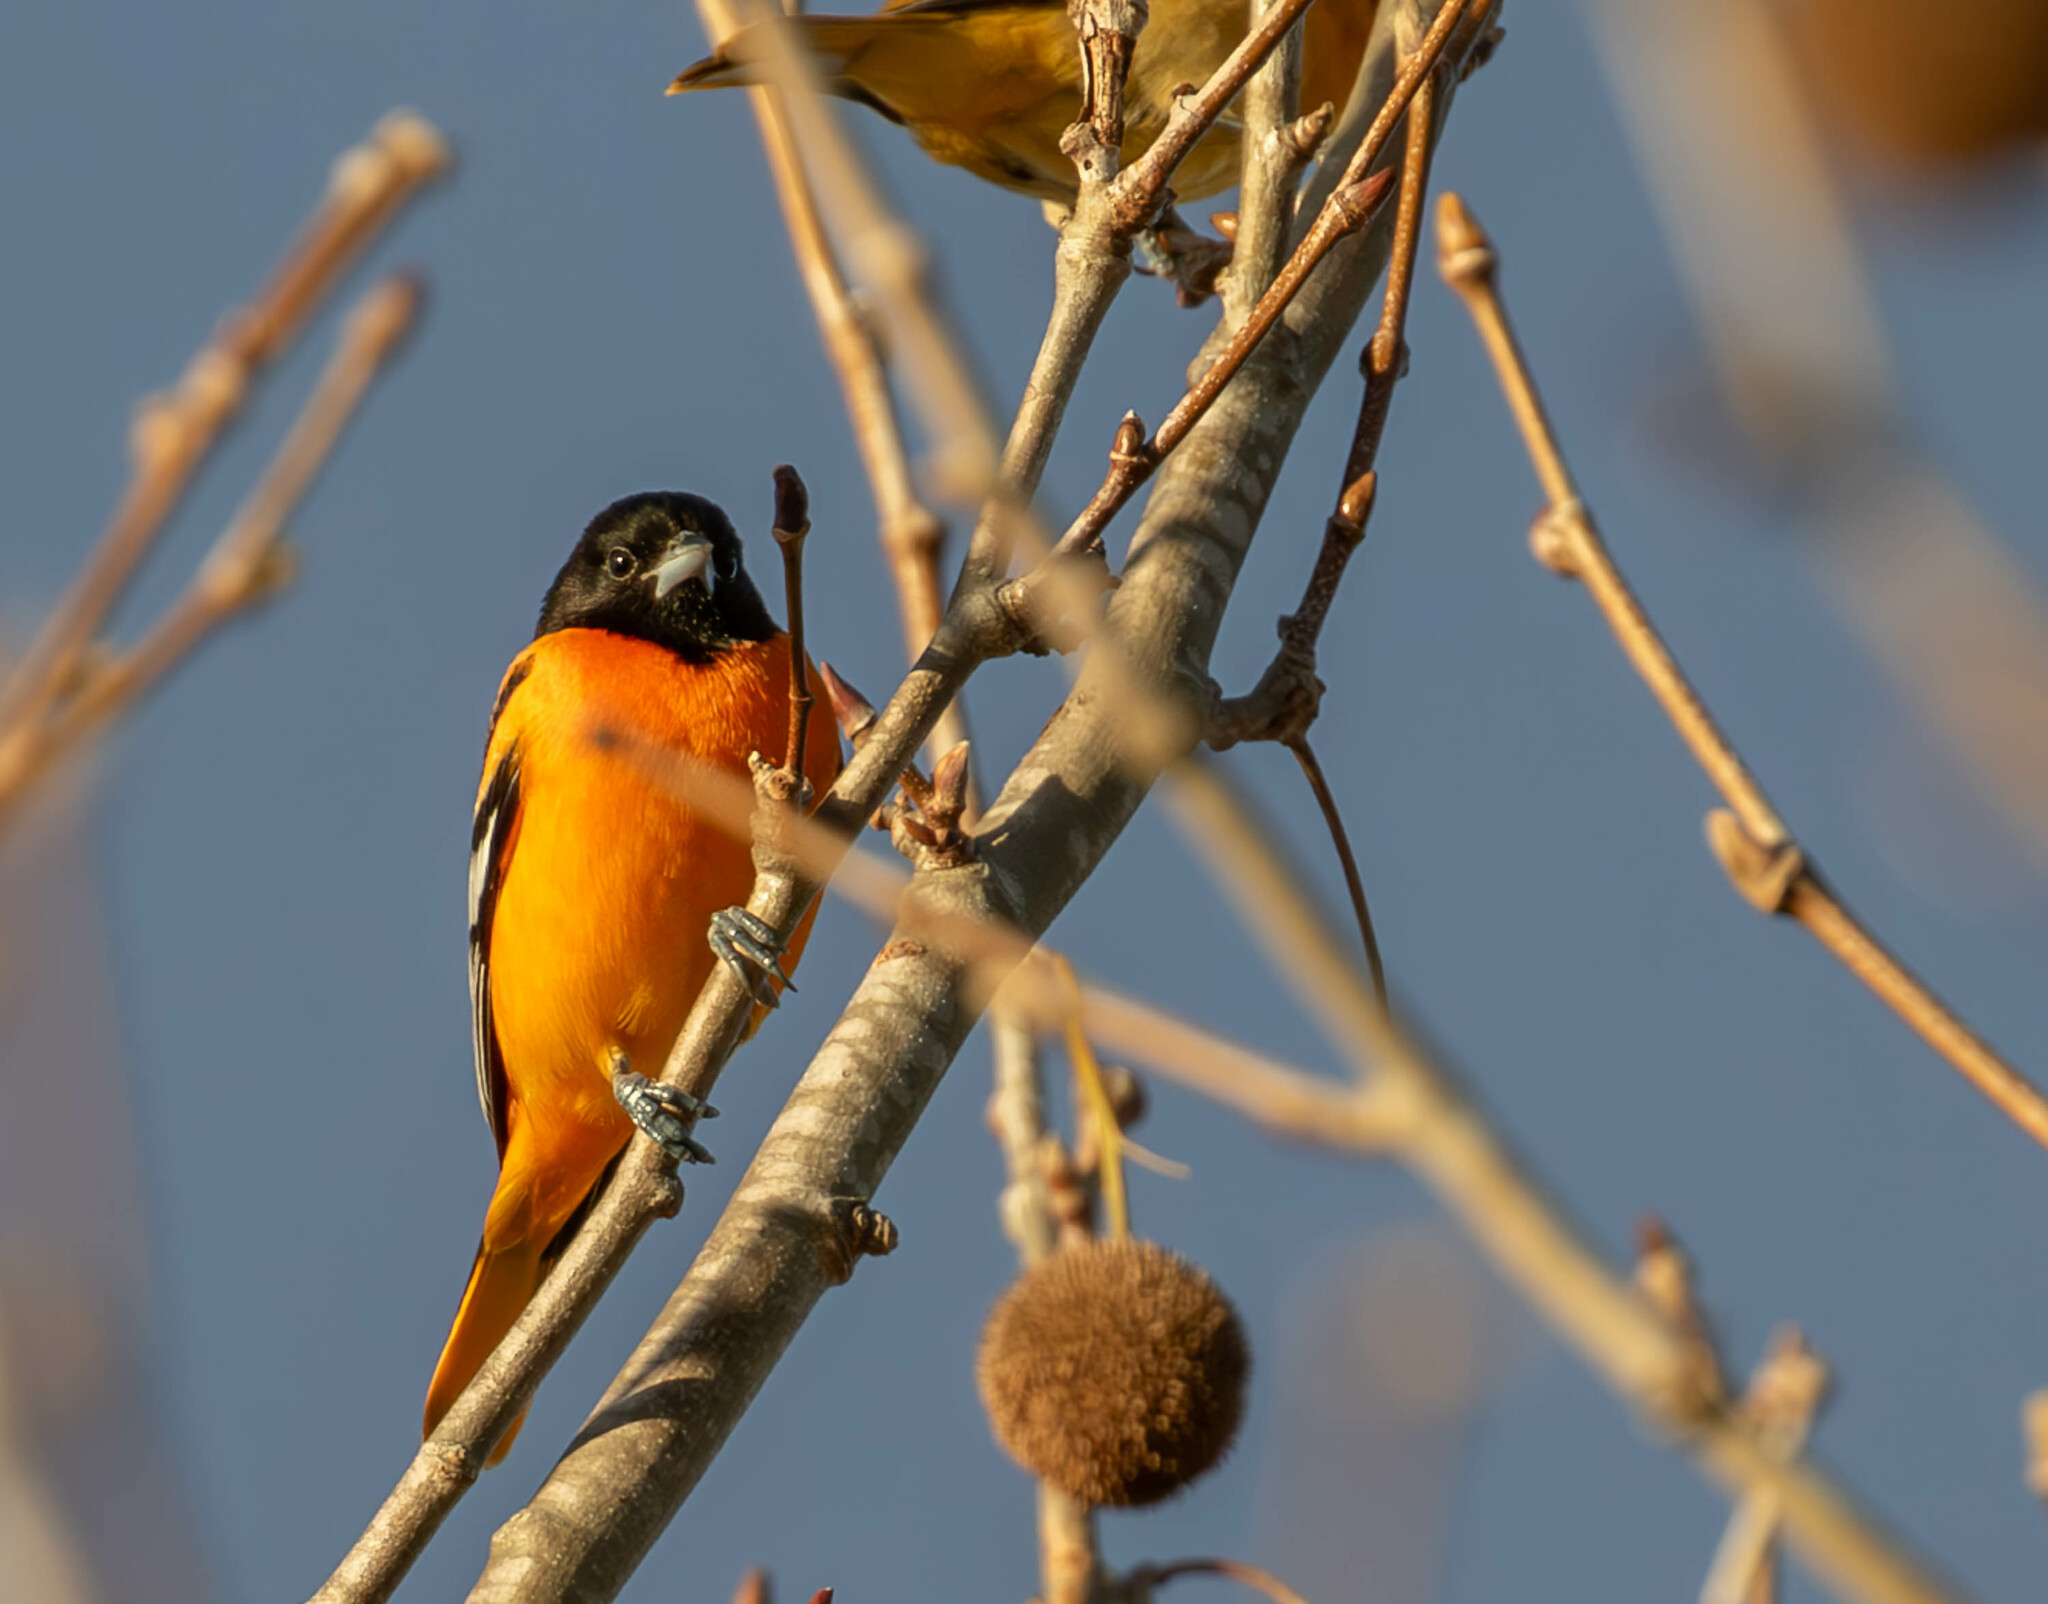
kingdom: Animalia
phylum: Chordata
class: Aves
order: Passeriformes
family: Icteridae
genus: Icterus
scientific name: Icterus galbula
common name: Baltimore oriole
